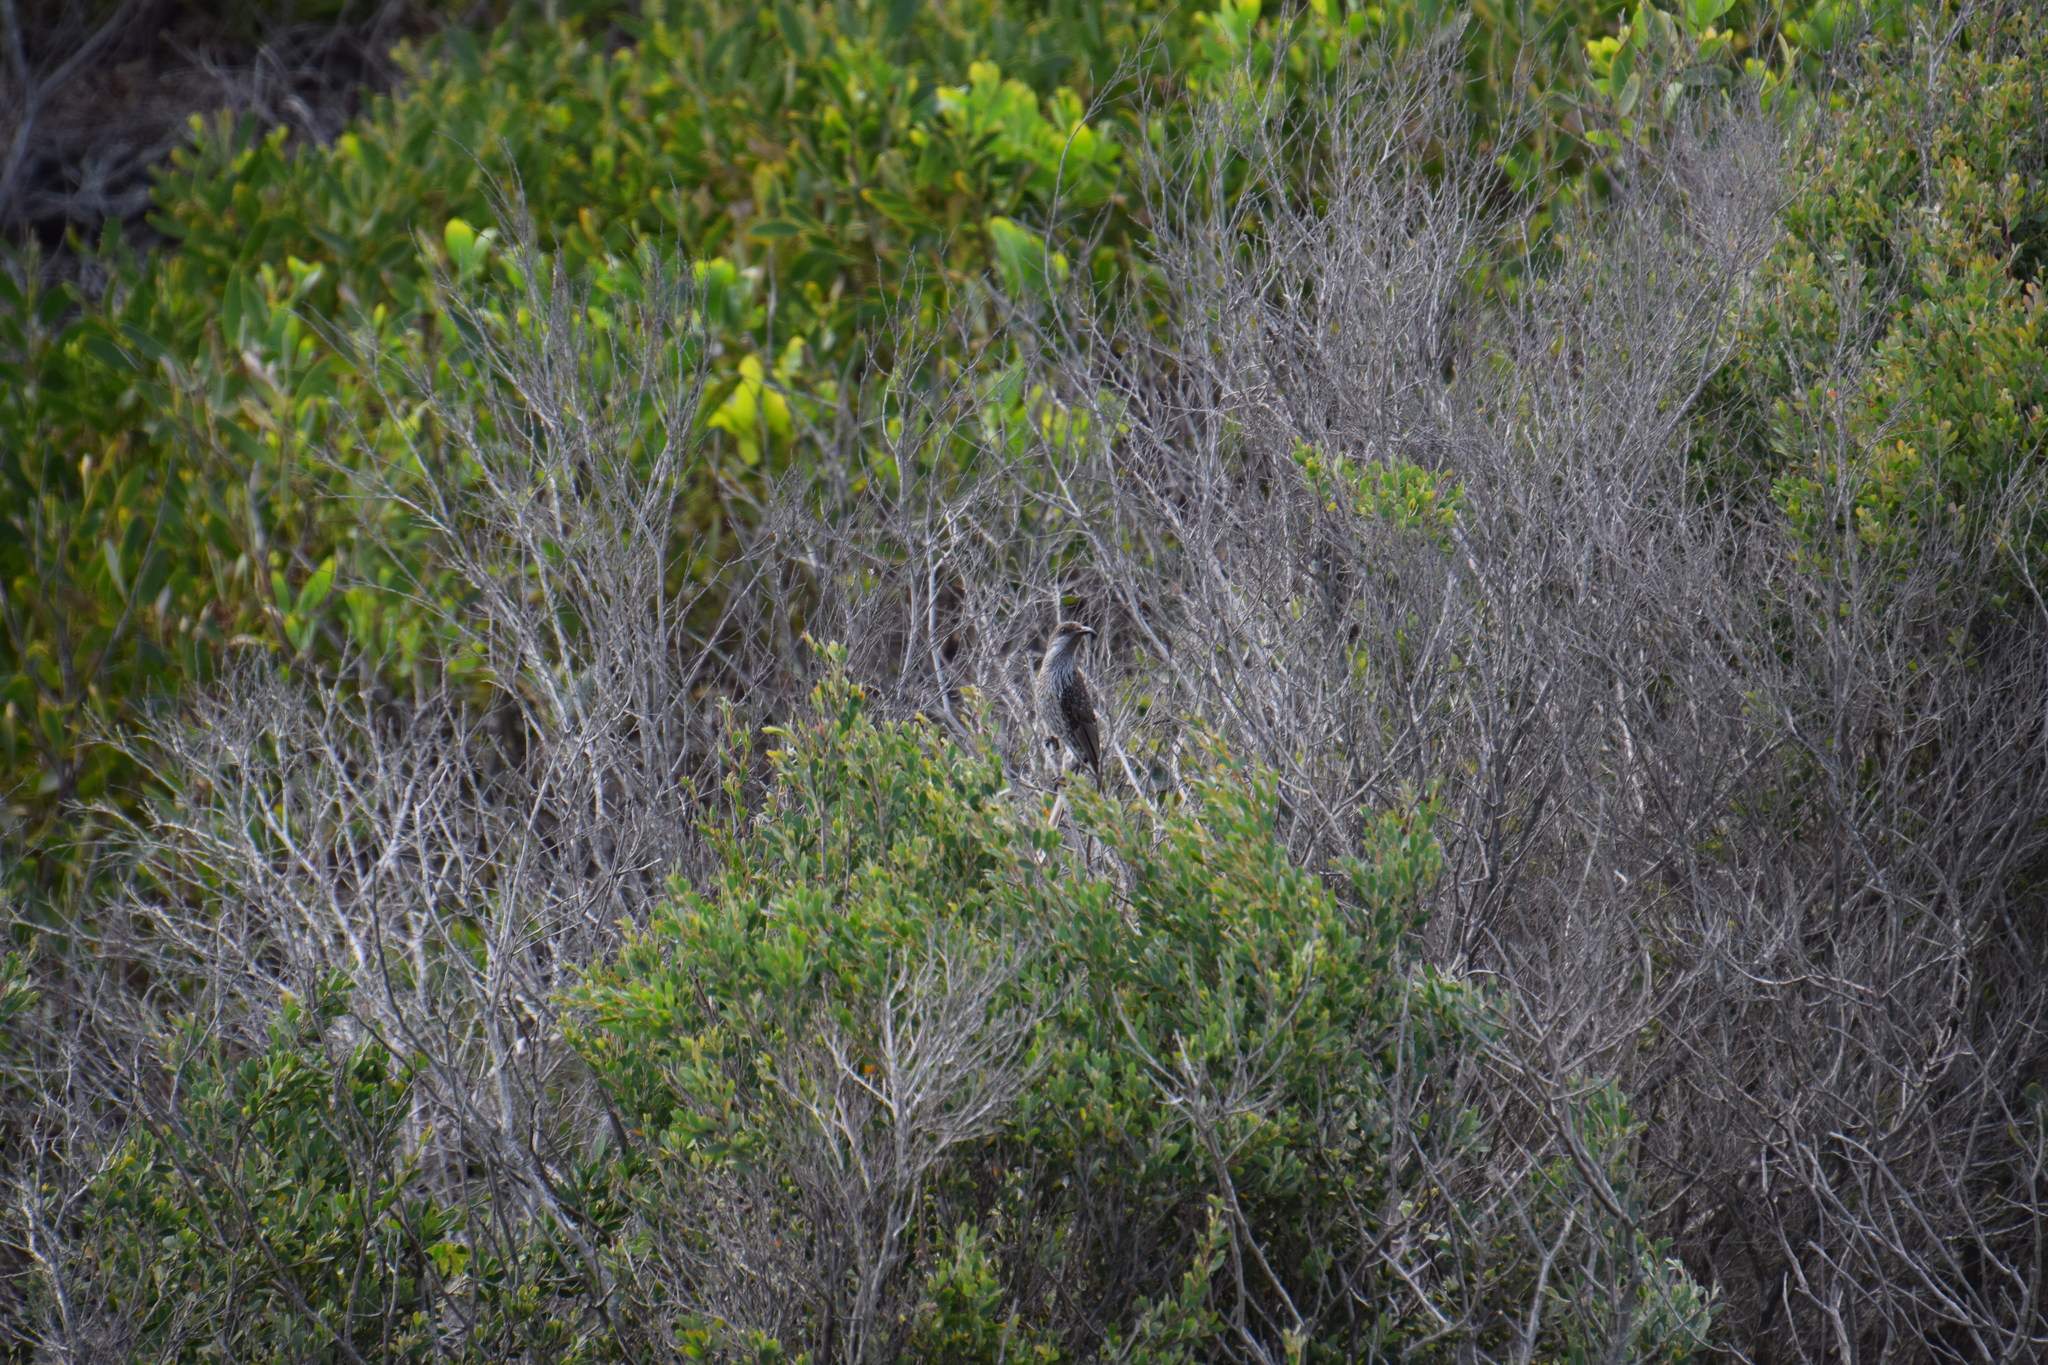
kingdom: Animalia
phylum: Chordata
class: Aves
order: Passeriformes
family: Meliphagidae
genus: Anthochaera
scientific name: Anthochaera chrysoptera
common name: Little wattlebird
